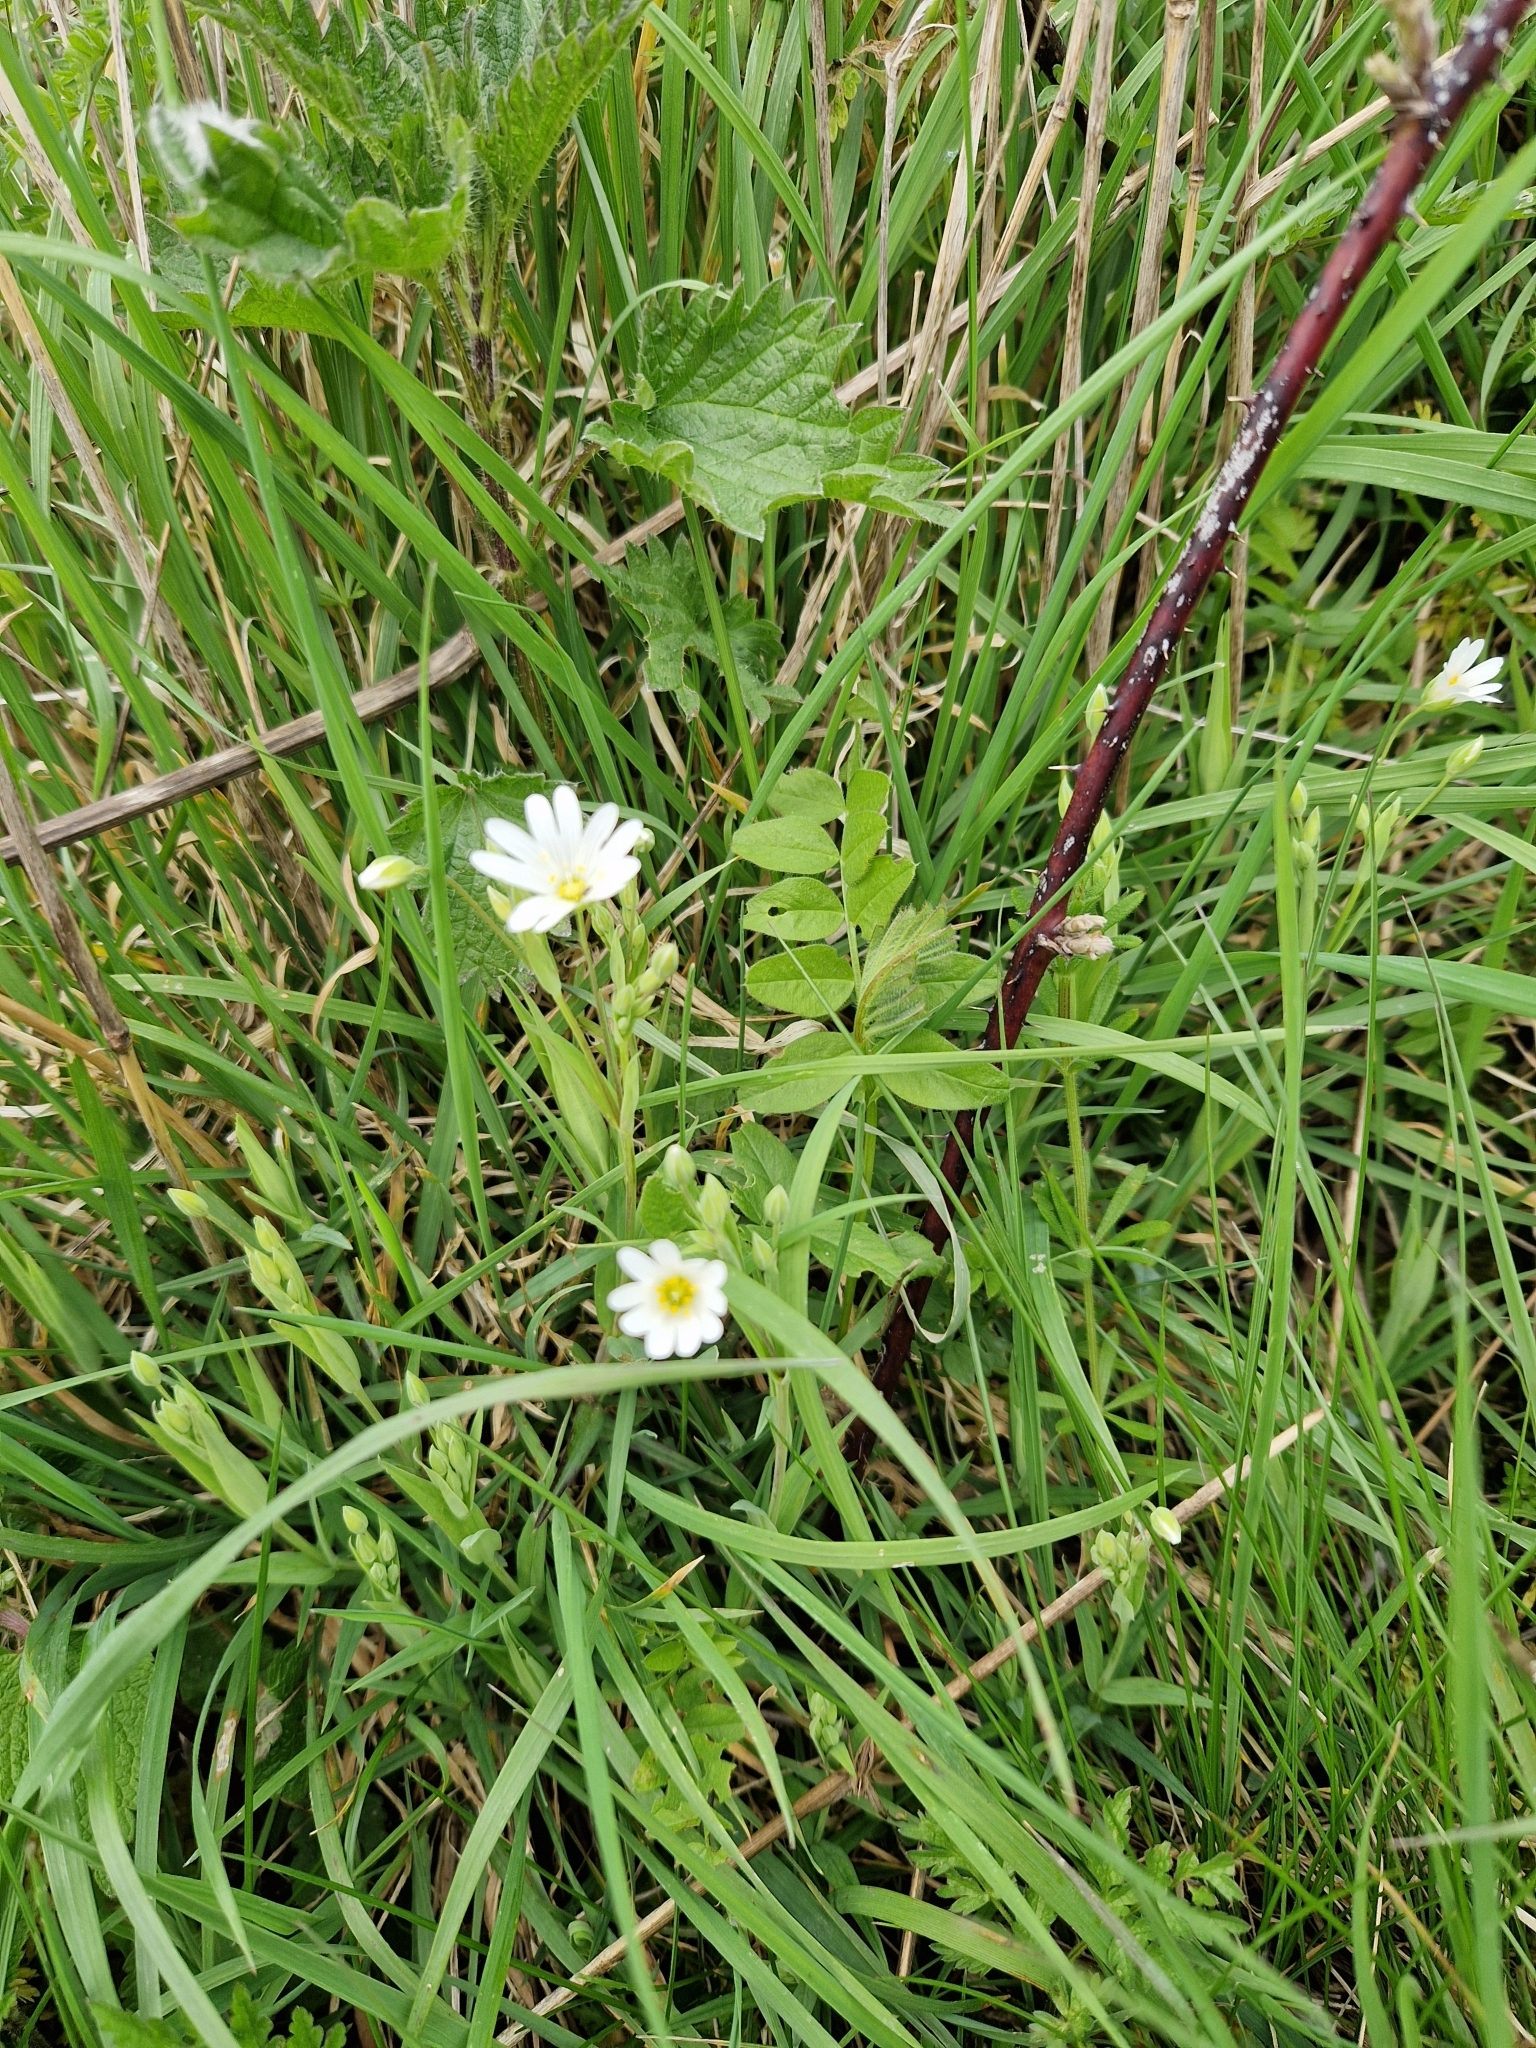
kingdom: Plantae
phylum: Tracheophyta
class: Magnoliopsida
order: Caryophyllales
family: Caryophyllaceae
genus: Rabelera
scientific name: Rabelera holostea
